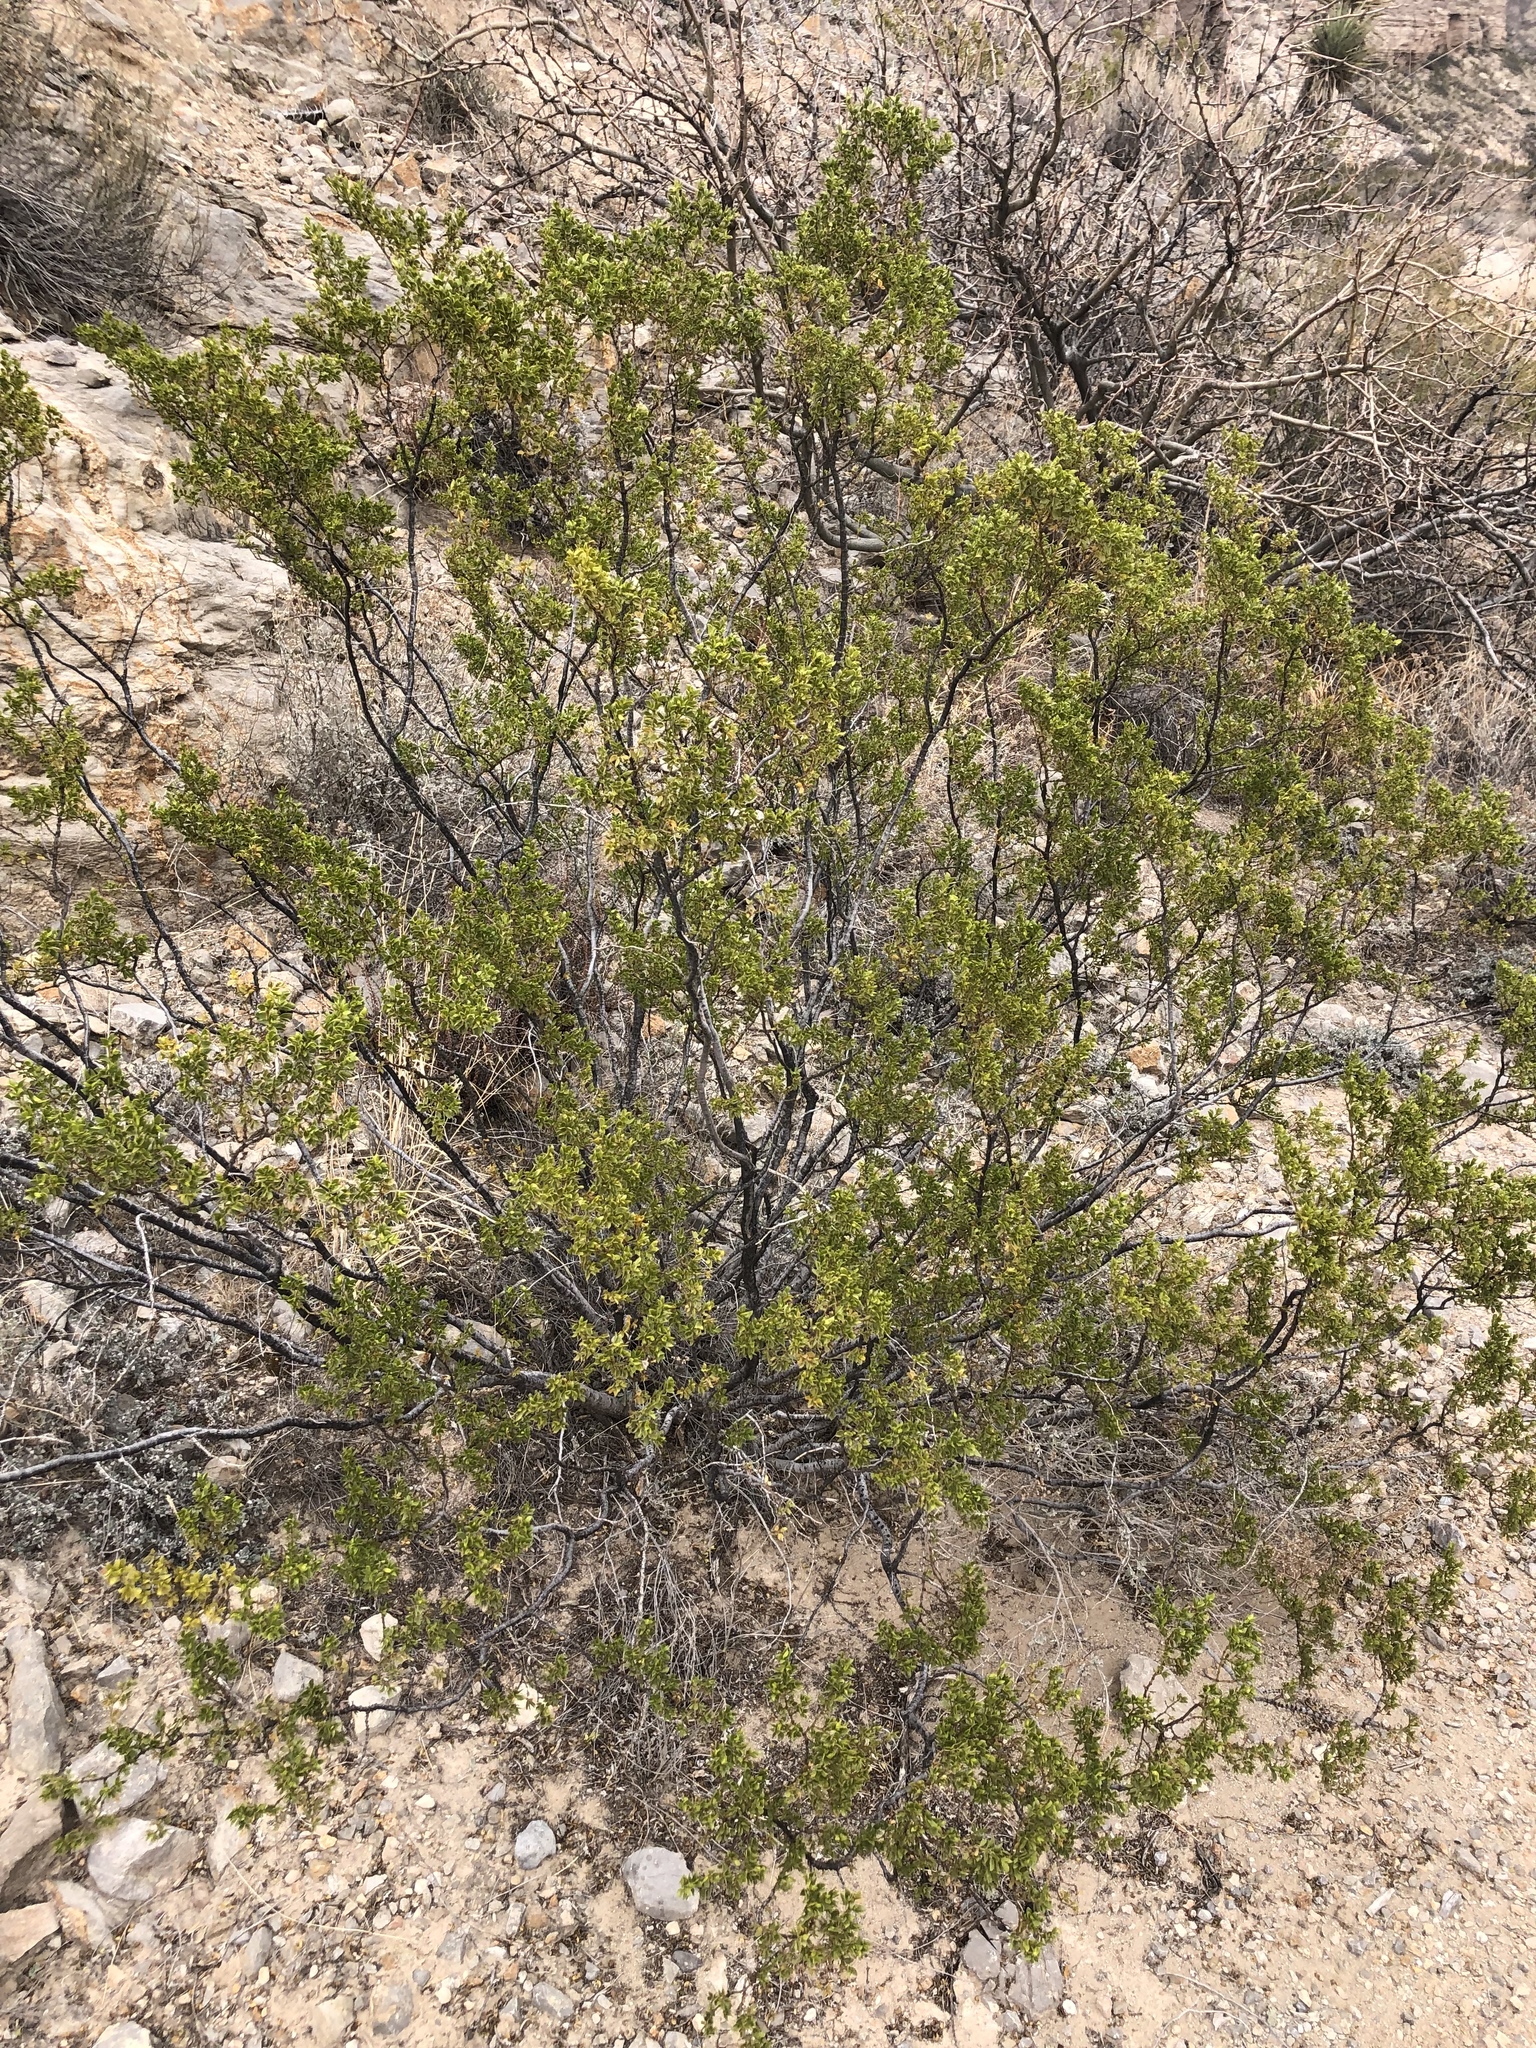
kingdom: Plantae
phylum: Tracheophyta
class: Magnoliopsida
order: Zygophyllales
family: Zygophyllaceae
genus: Larrea
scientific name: Larrea tridentata
